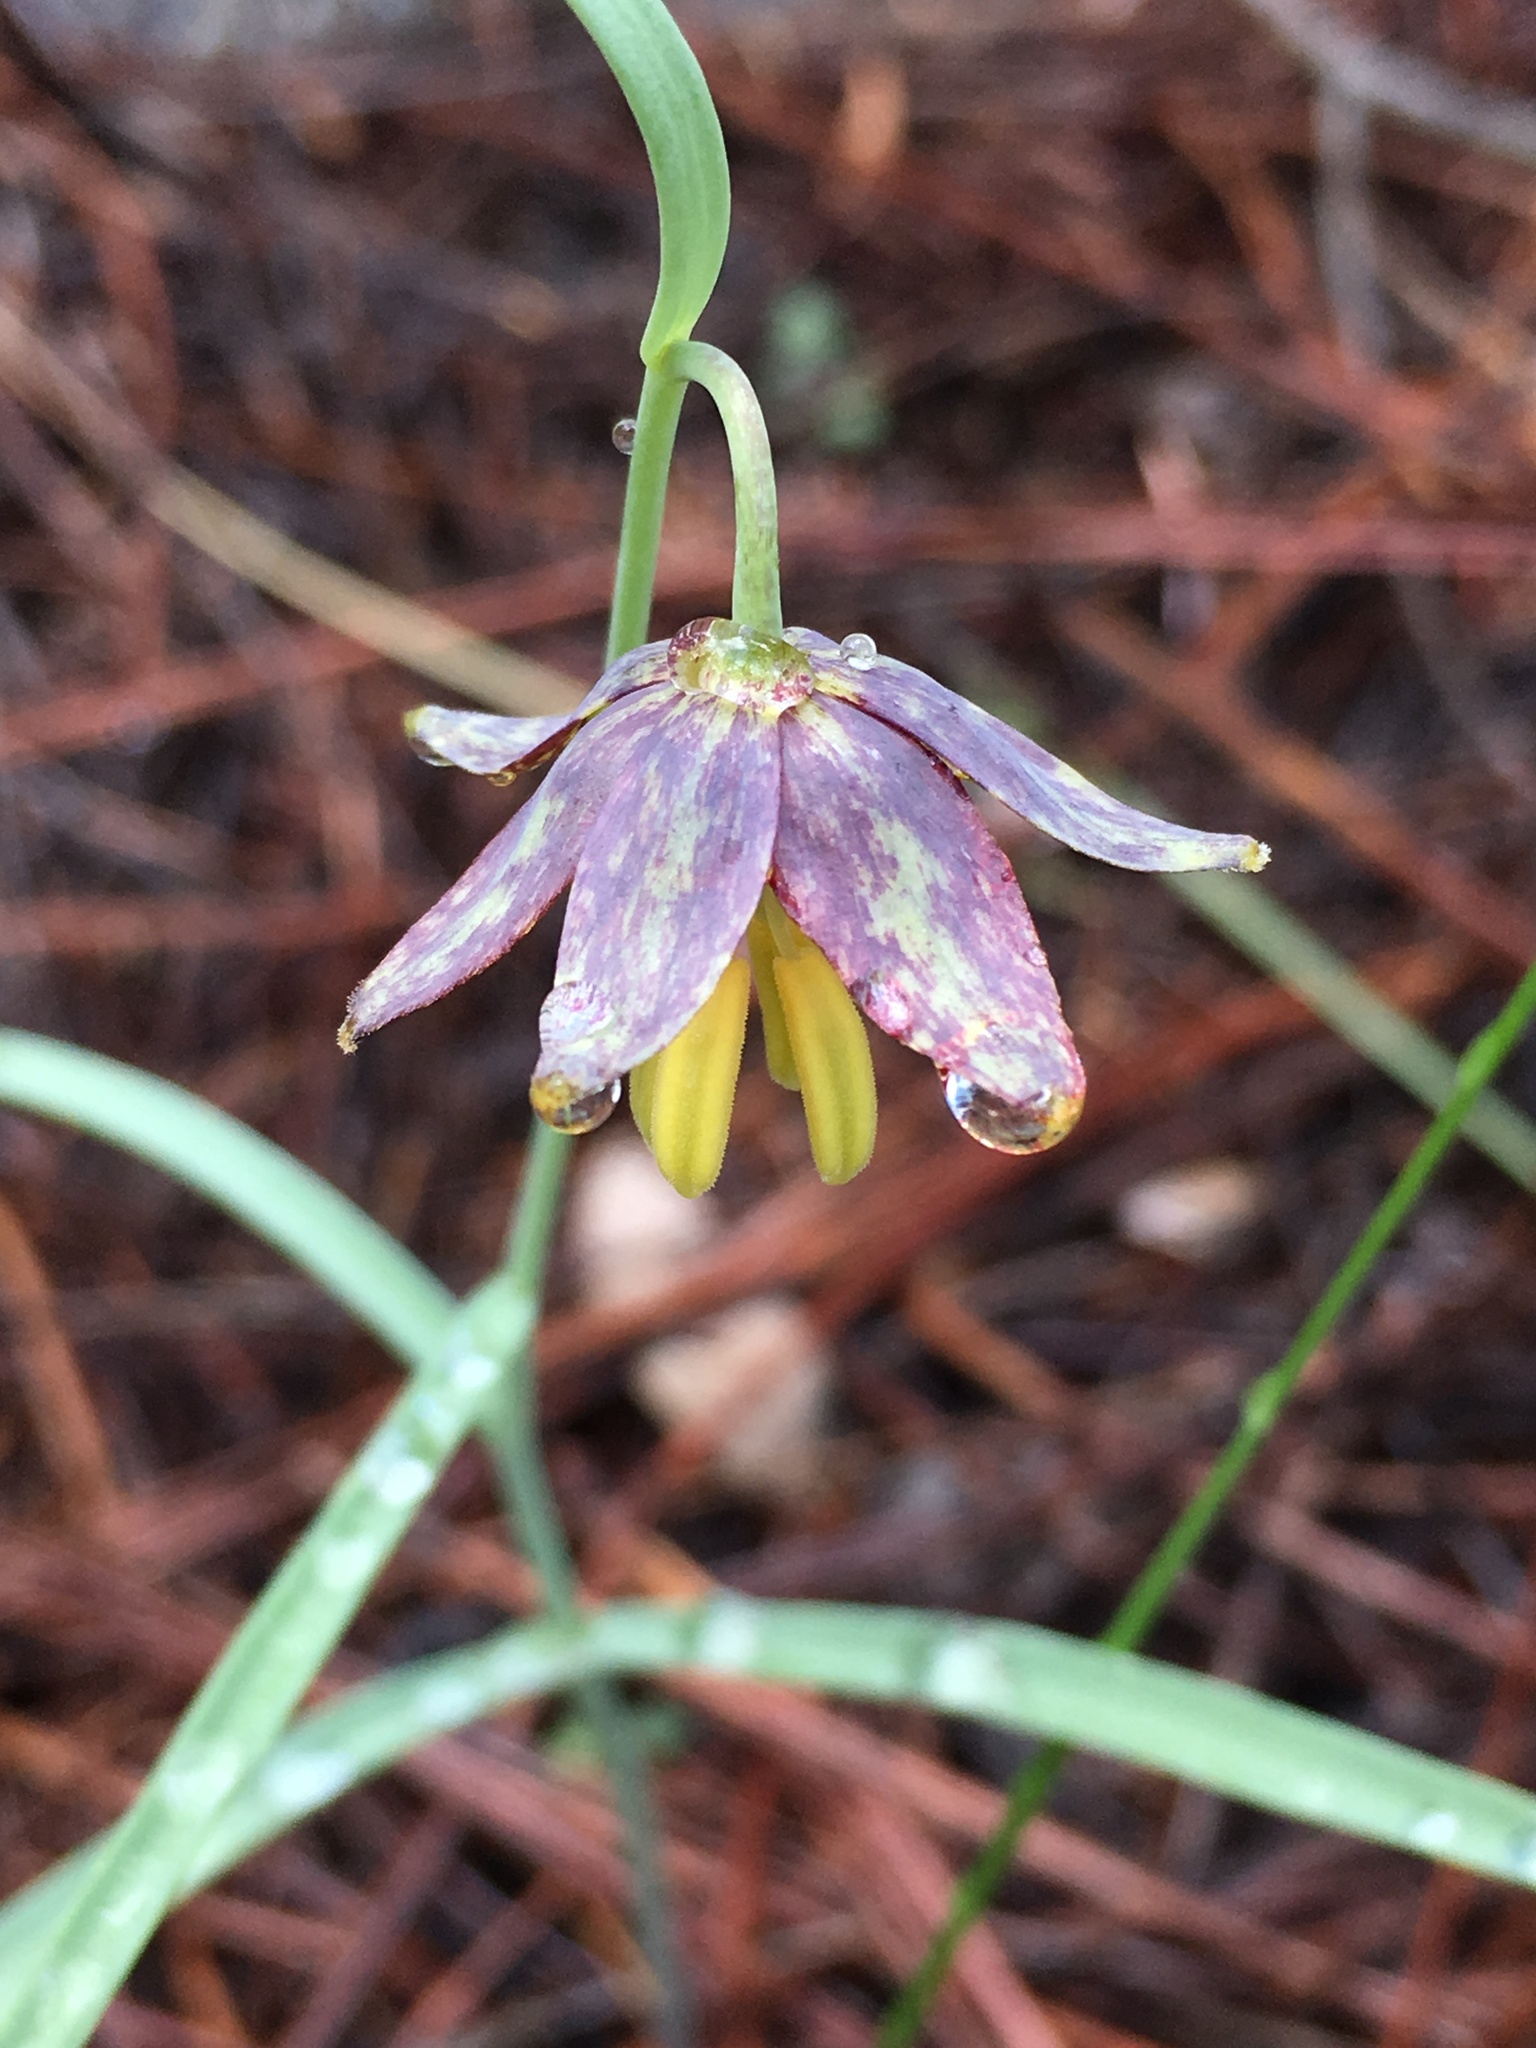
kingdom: Plantae
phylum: Tracheophyta
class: Liliopsida
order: Liliales
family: Liliaceae
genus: Fritillaria
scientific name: Fritillaria atropurpurea
